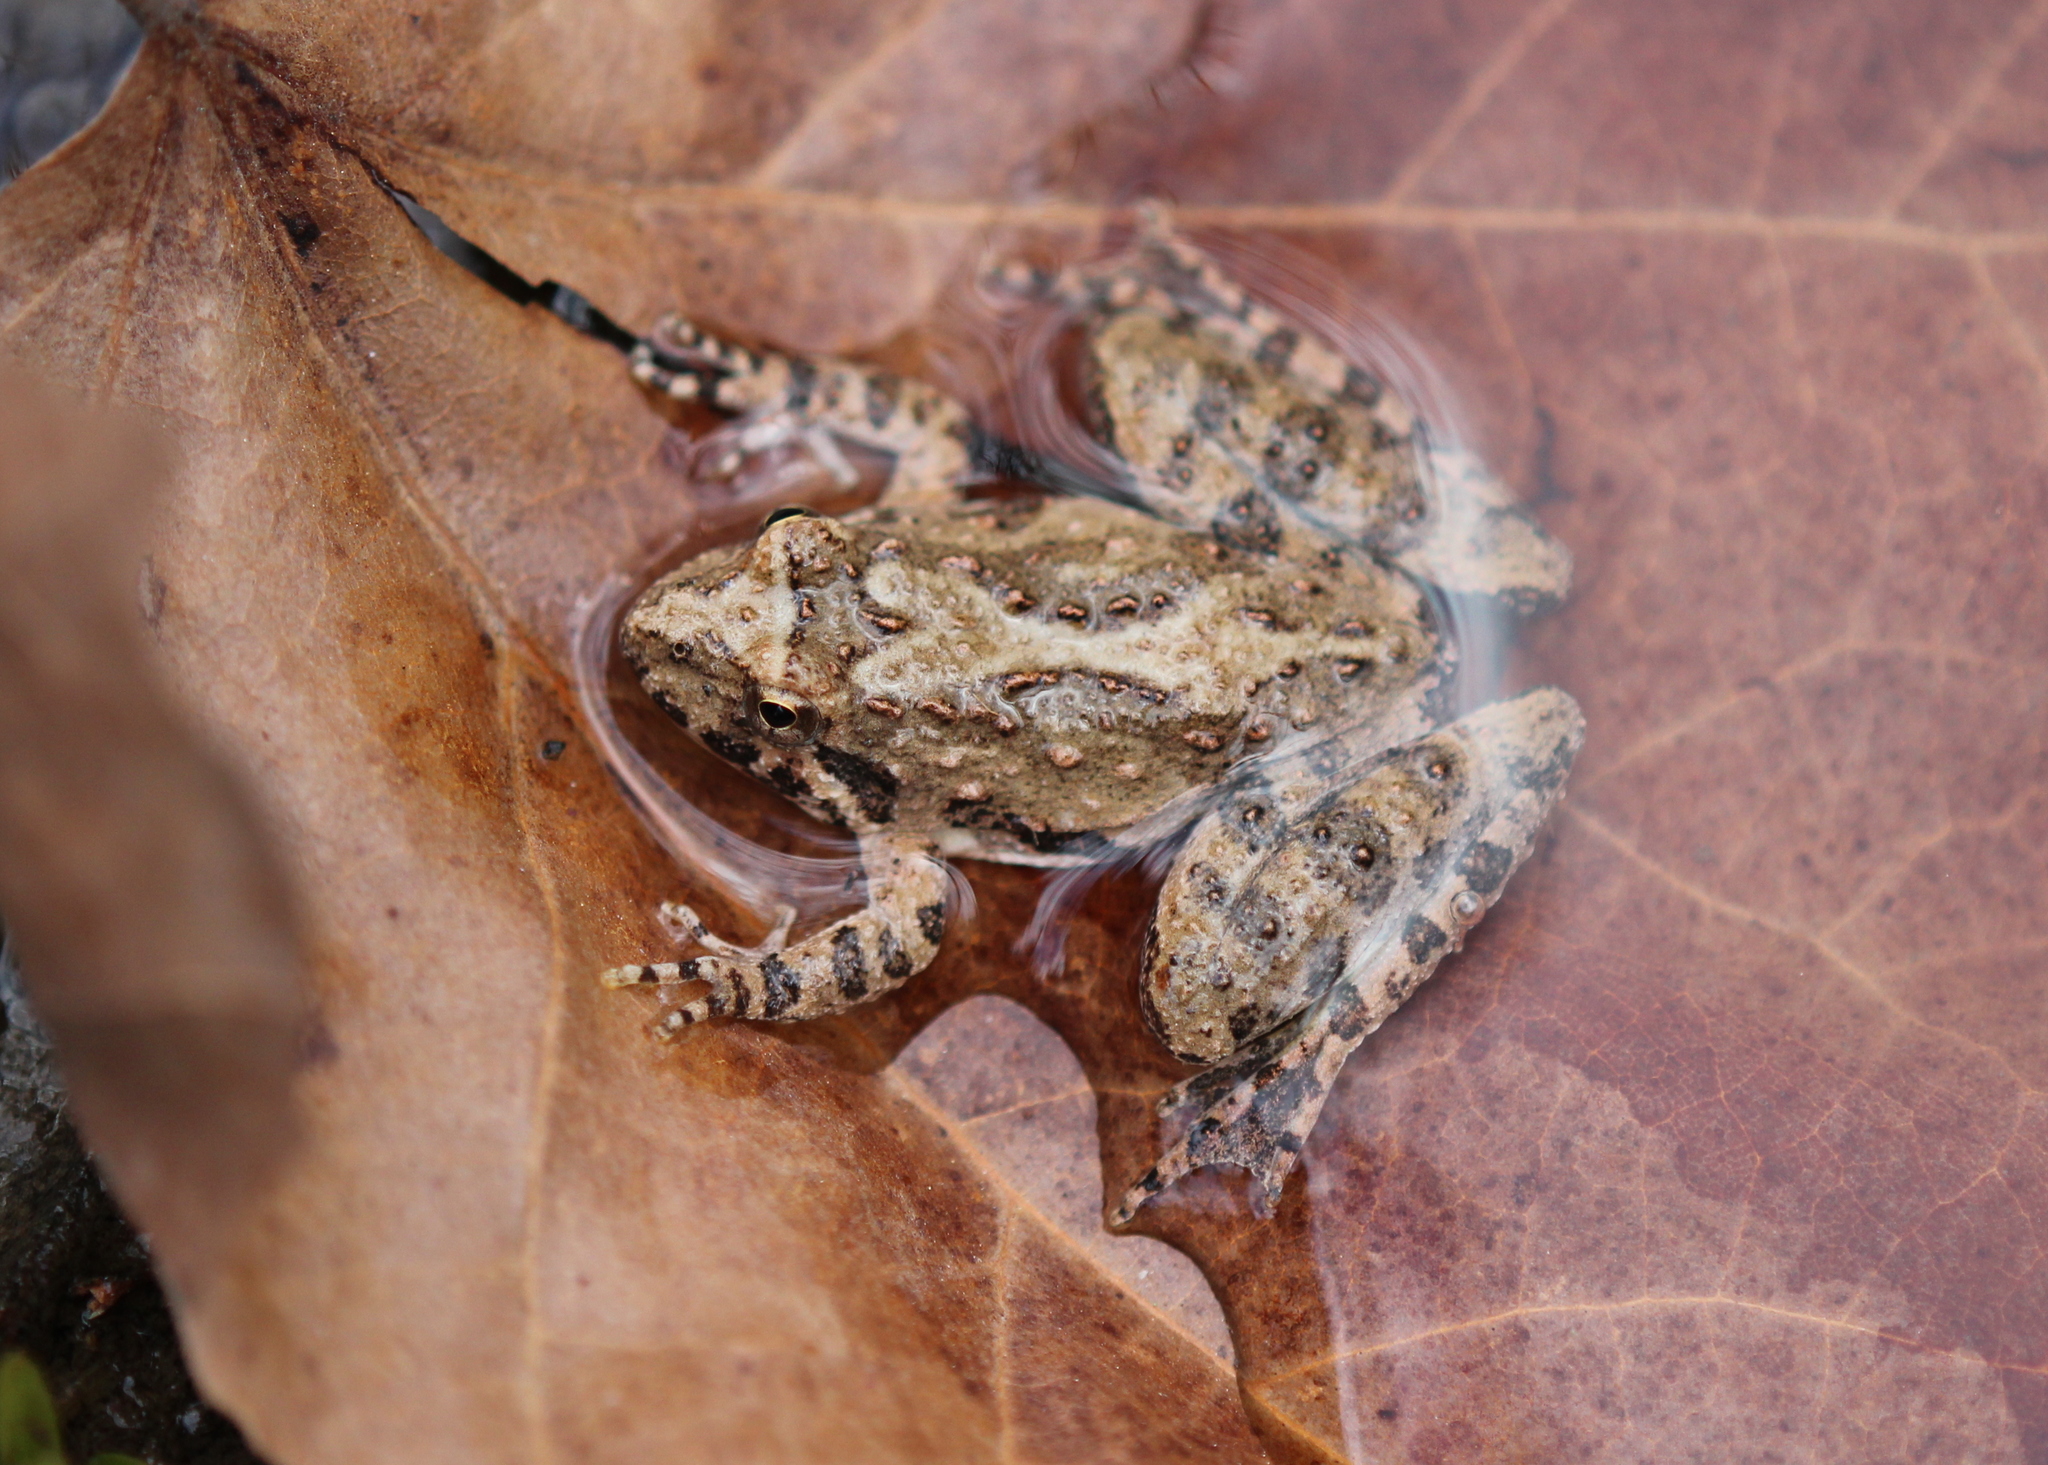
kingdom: Animalia
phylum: Chordata
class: Amphibia
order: Anura
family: Hylidae
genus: Acris
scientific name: Acris blanchardi
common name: Blanchard's cricket frog
